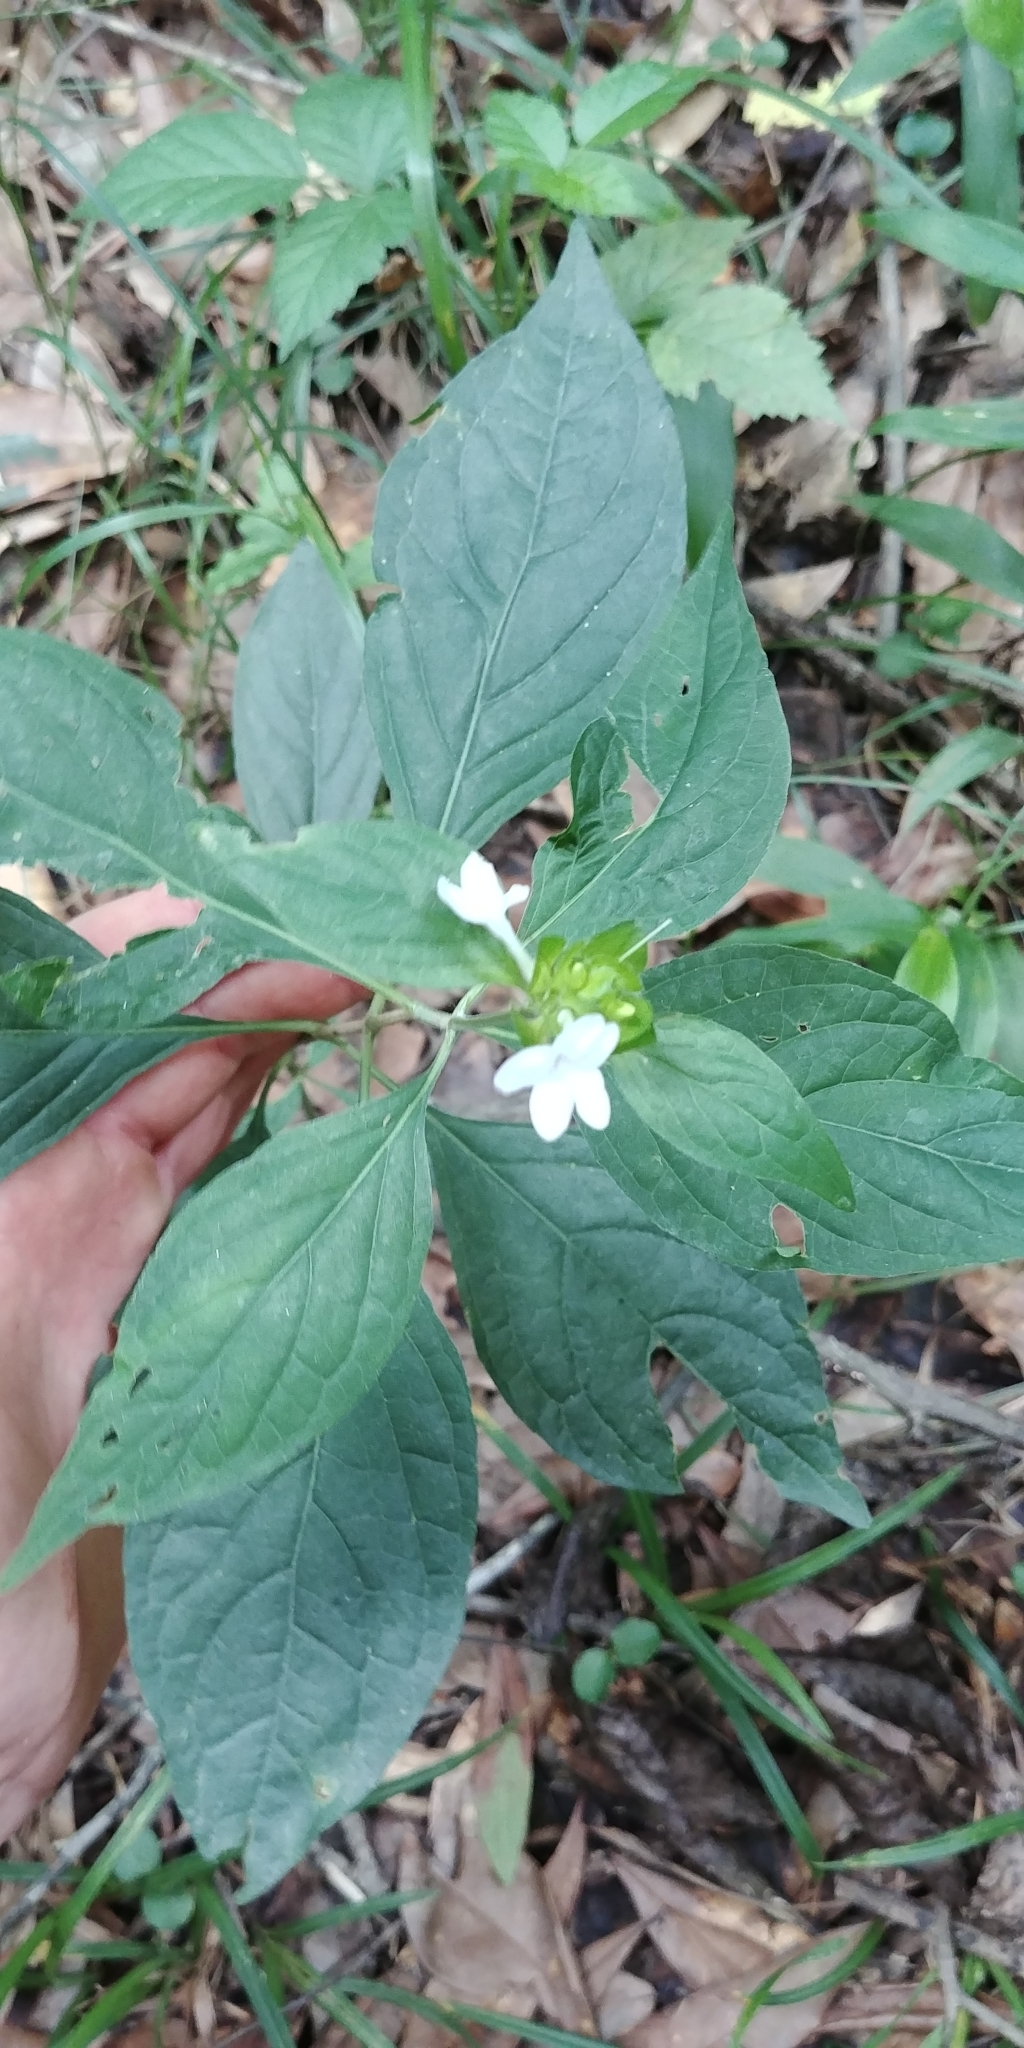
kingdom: Plantae
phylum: Tracheophyta
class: Magnoliopsida
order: Lamiales
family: Acanthaceae
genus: Yeatesia
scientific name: Yeatesia viridiflora
